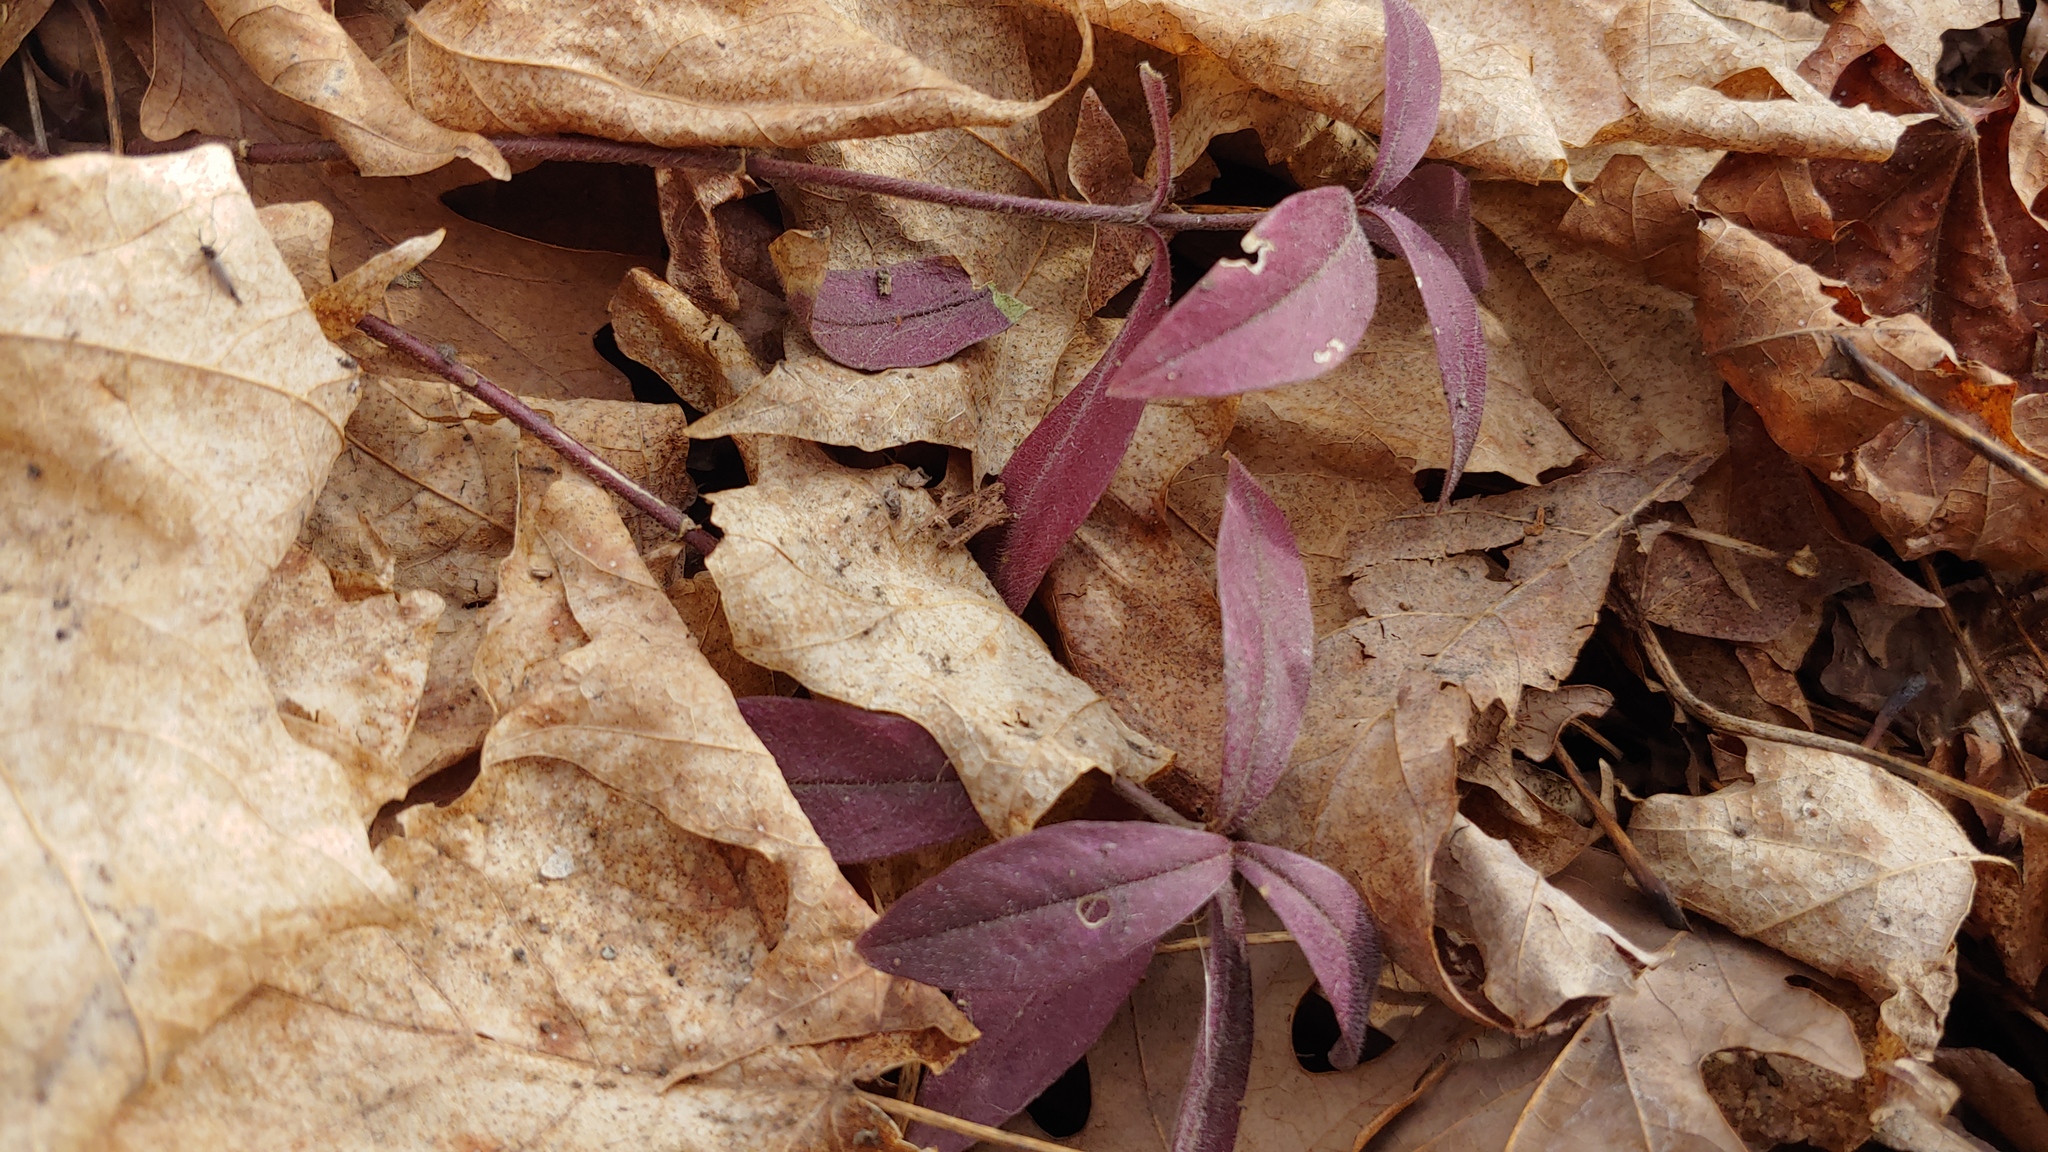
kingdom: Plantae
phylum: Tracheophyta
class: Magnoliopsida
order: Ericales
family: Polemoniaceae
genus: Phlox
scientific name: Phlox divaricata
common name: Blue phlox
